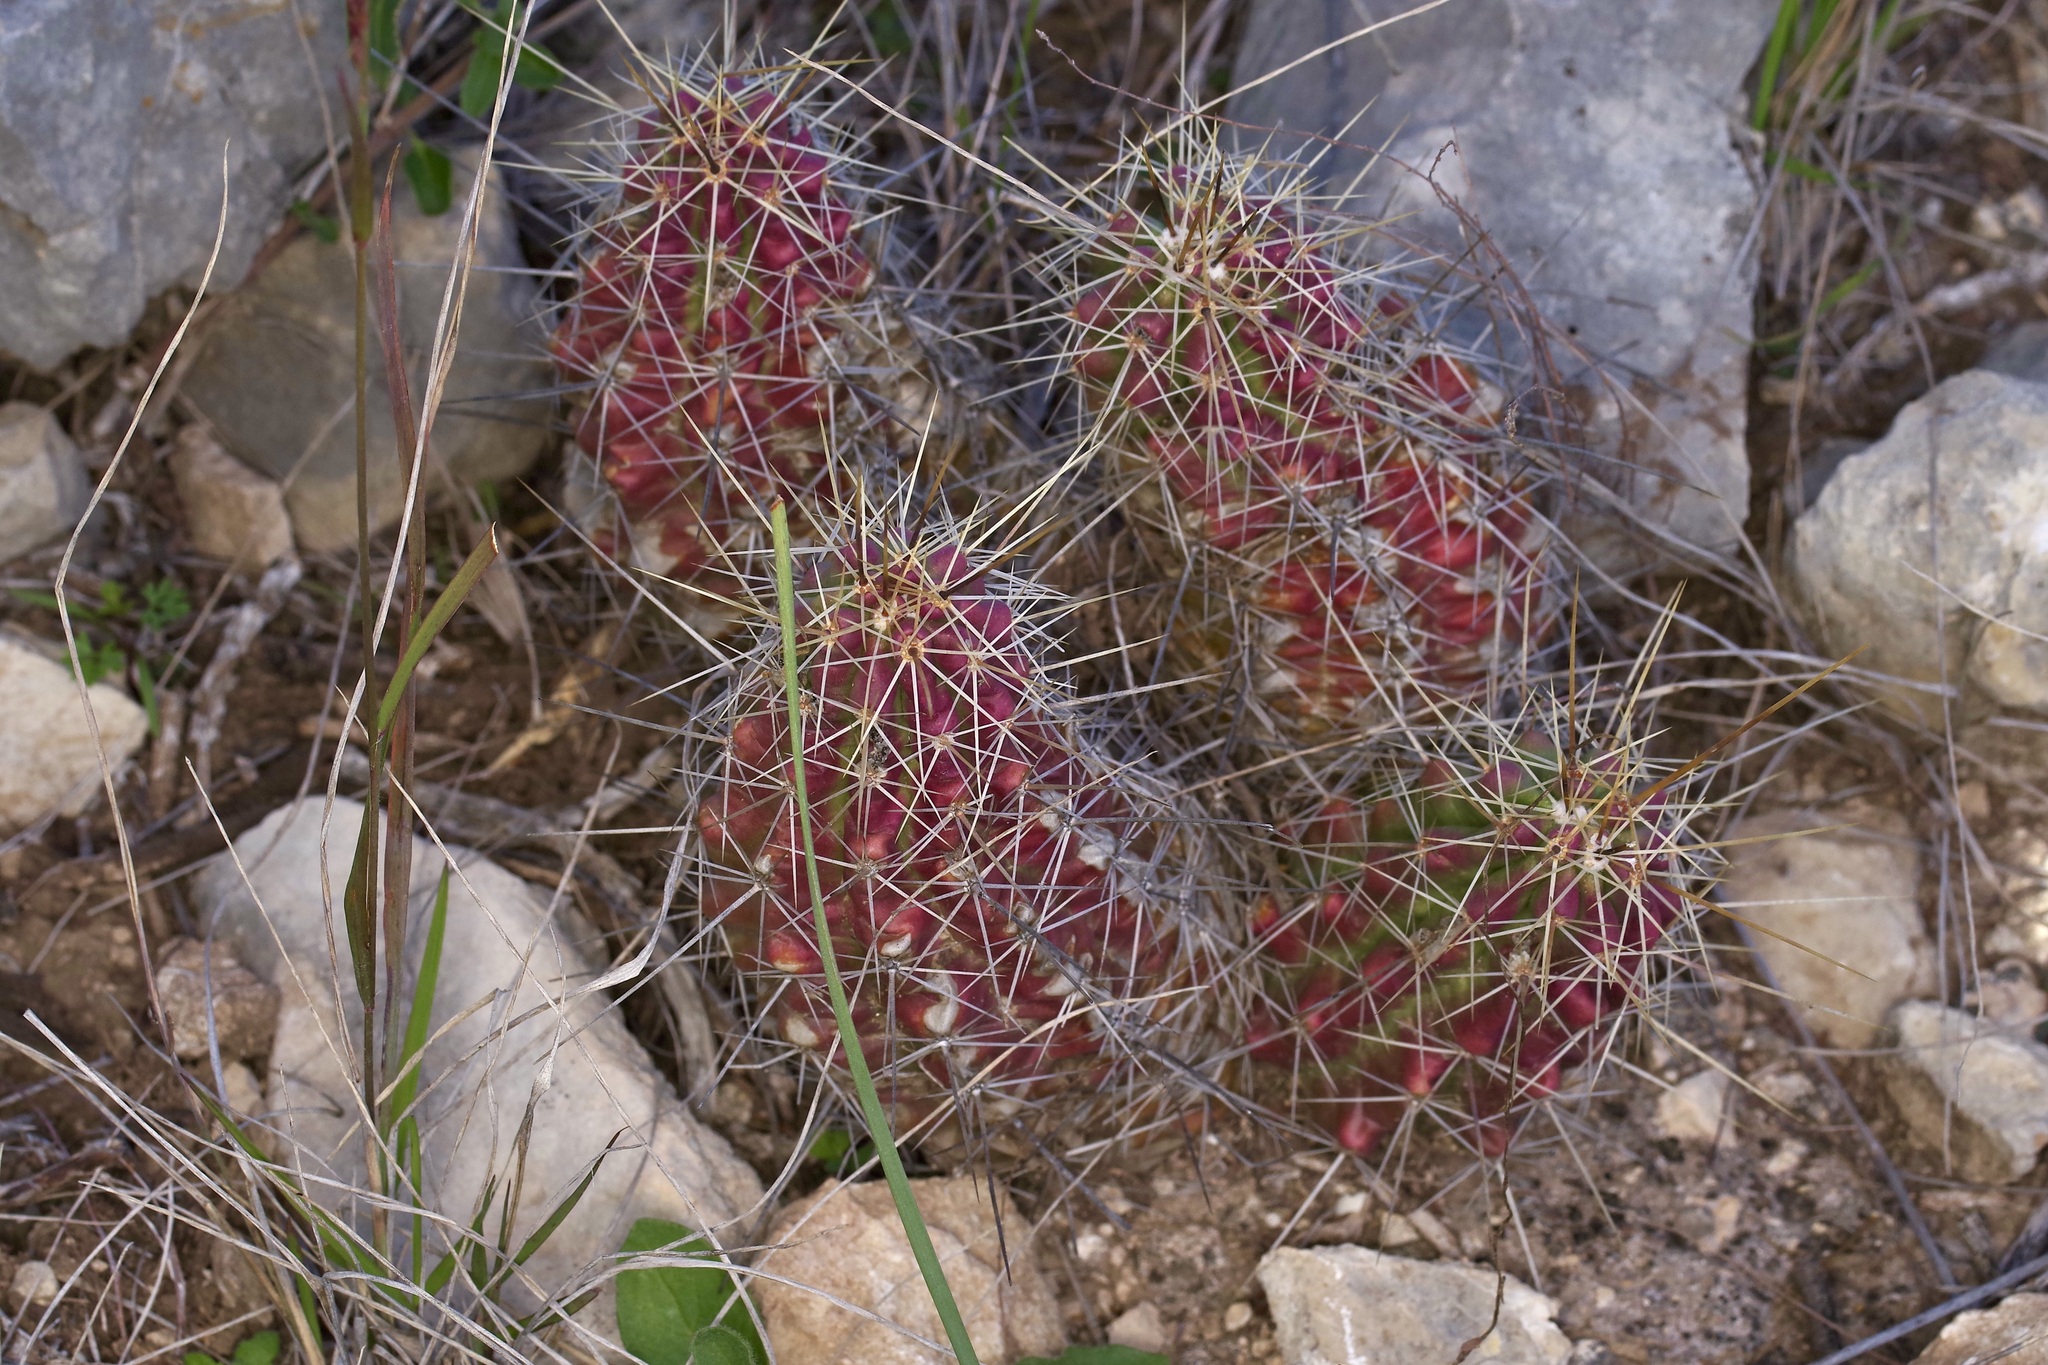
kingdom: Plantae
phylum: Tracheophyta
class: Magnoliopsida
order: Caryophyllales
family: Cactaceae
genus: Echinocereus
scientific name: Echinocereus enneacanthus
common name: Pitaya
